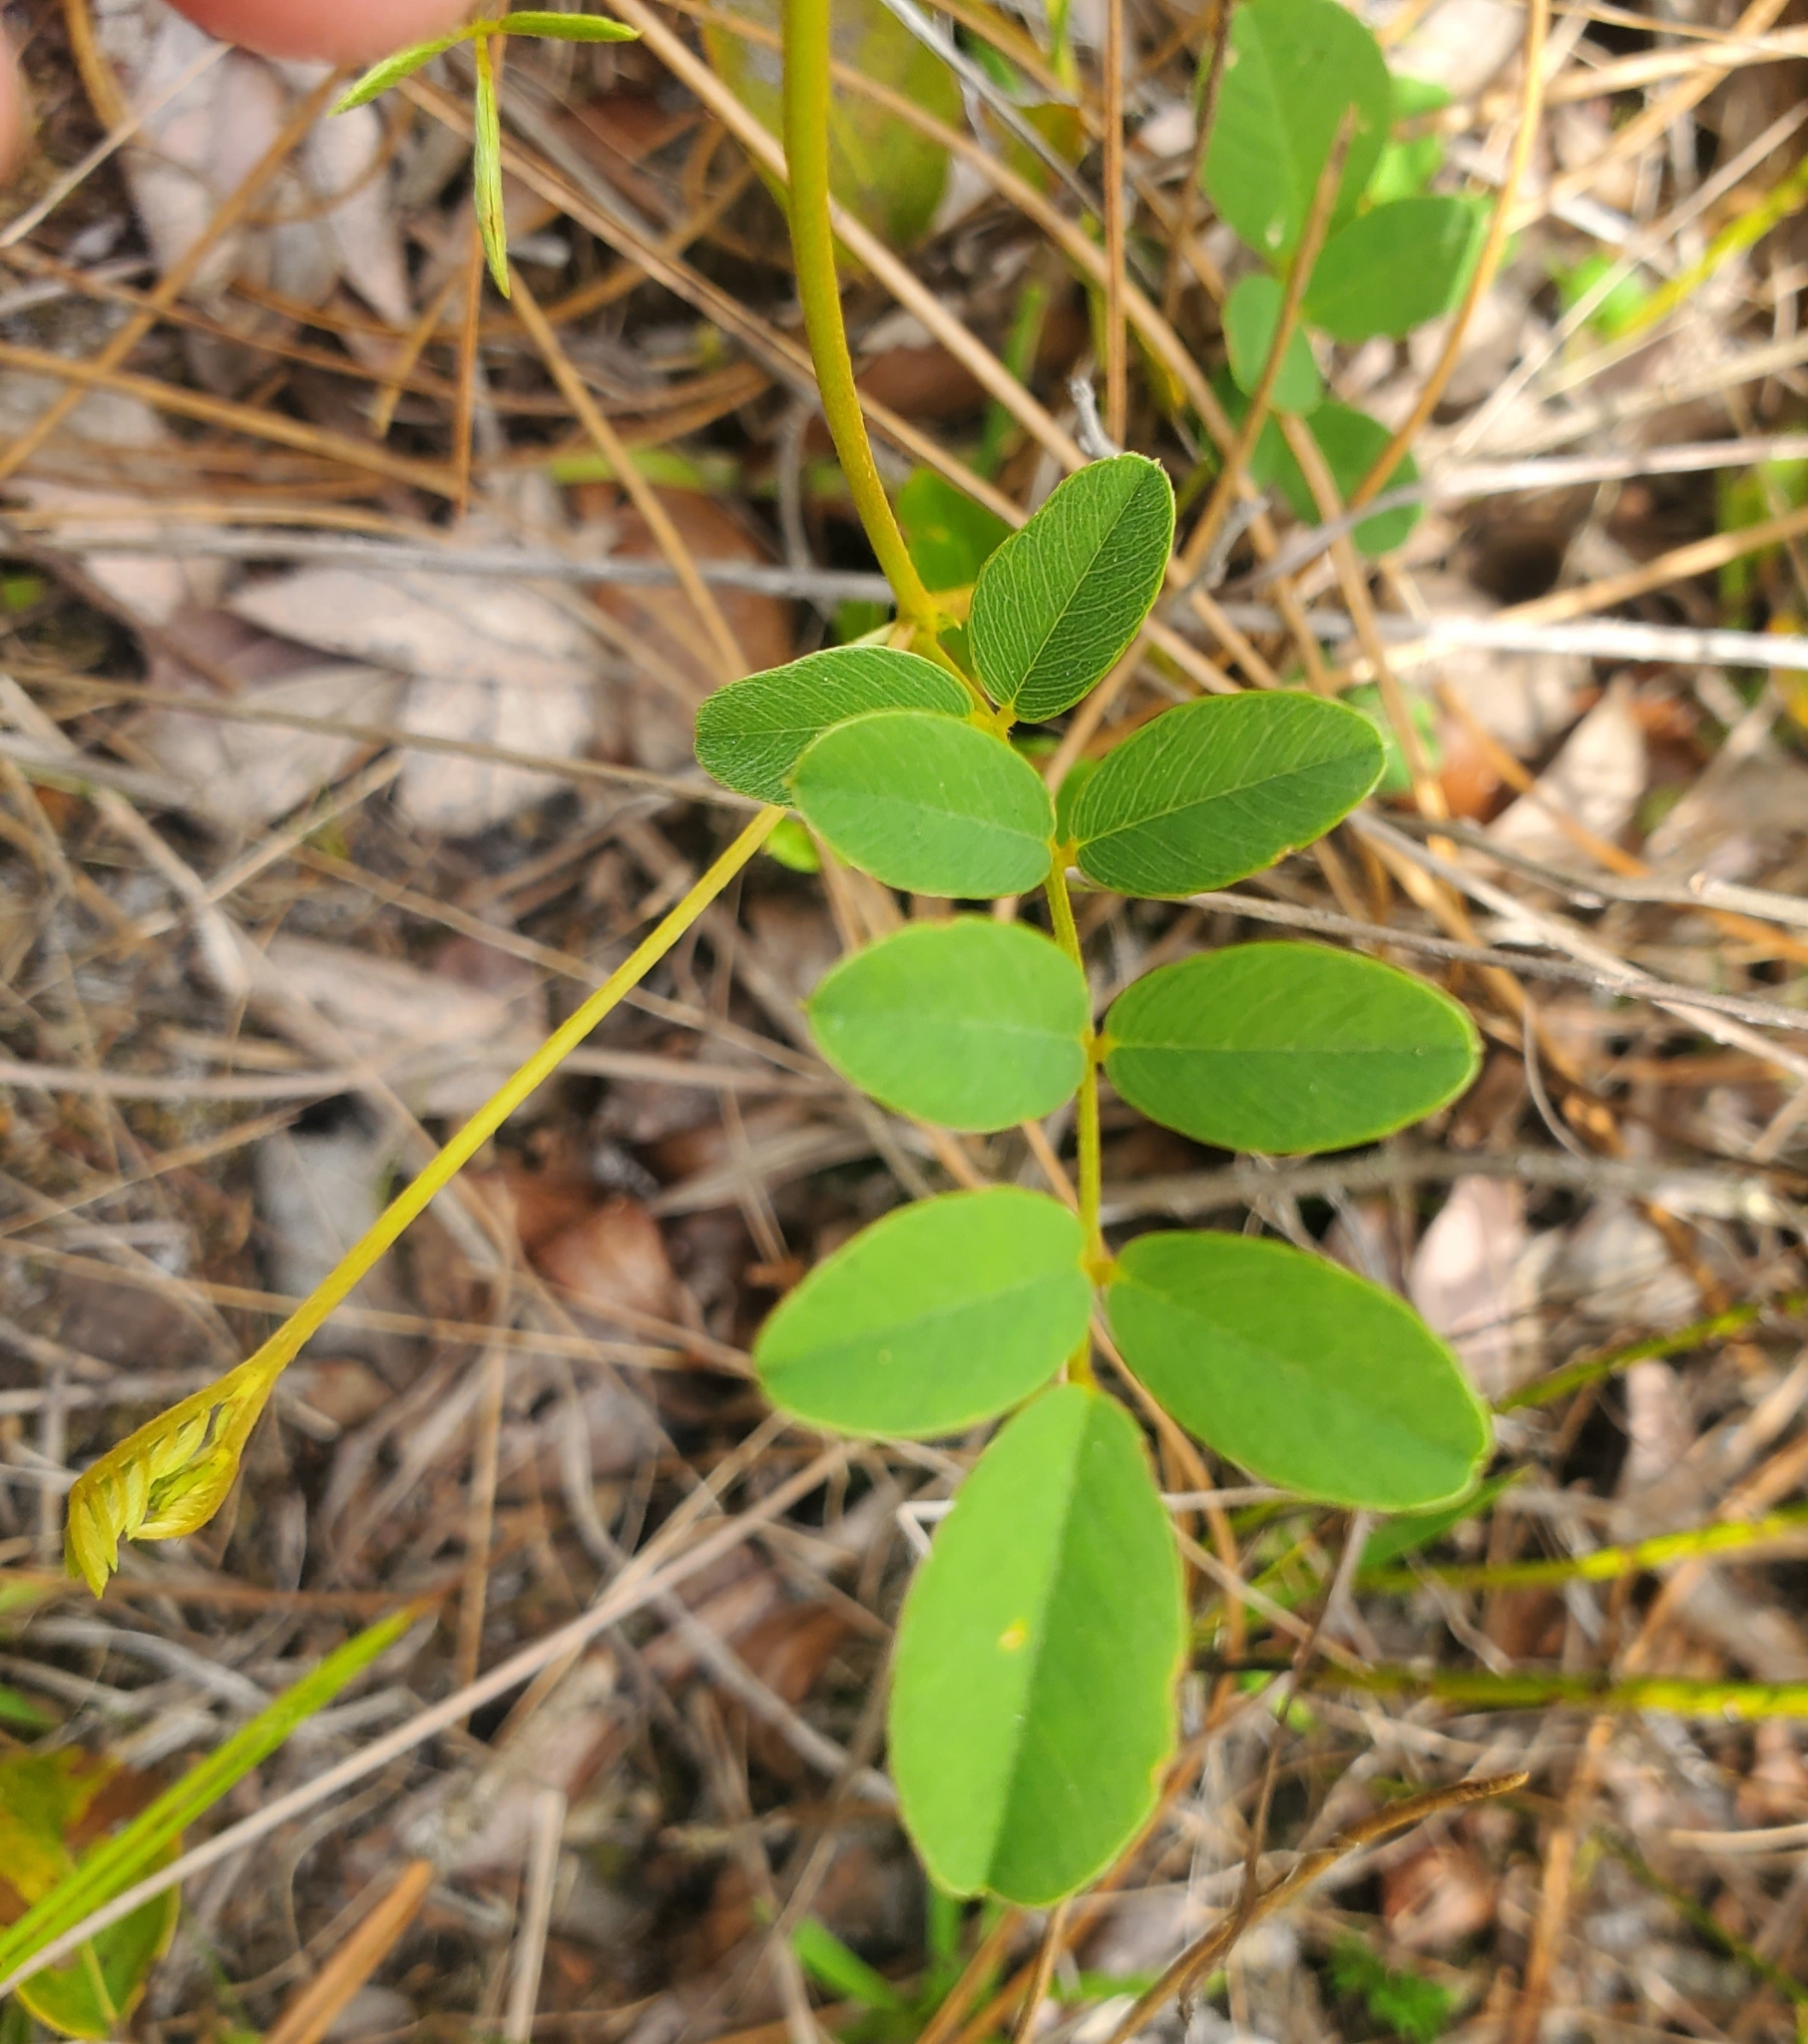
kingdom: Plantae
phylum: Tracheophyta
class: Magnoliopsida
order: Fabales
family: Fabaceae
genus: Tephrosia
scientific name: Tephrosia spicata
